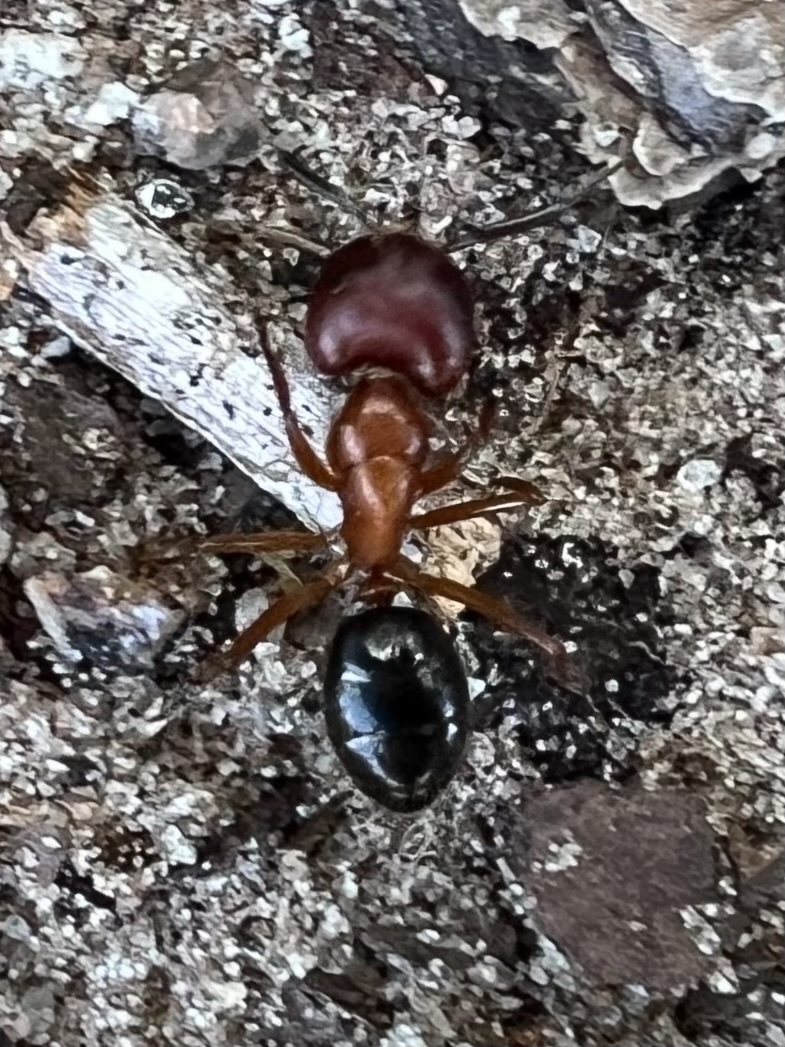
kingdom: Animalia
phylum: Arthropoda
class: Insecta
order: Hymenoptera
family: Formicidae
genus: Camponotus
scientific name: Camponotus floridanus
